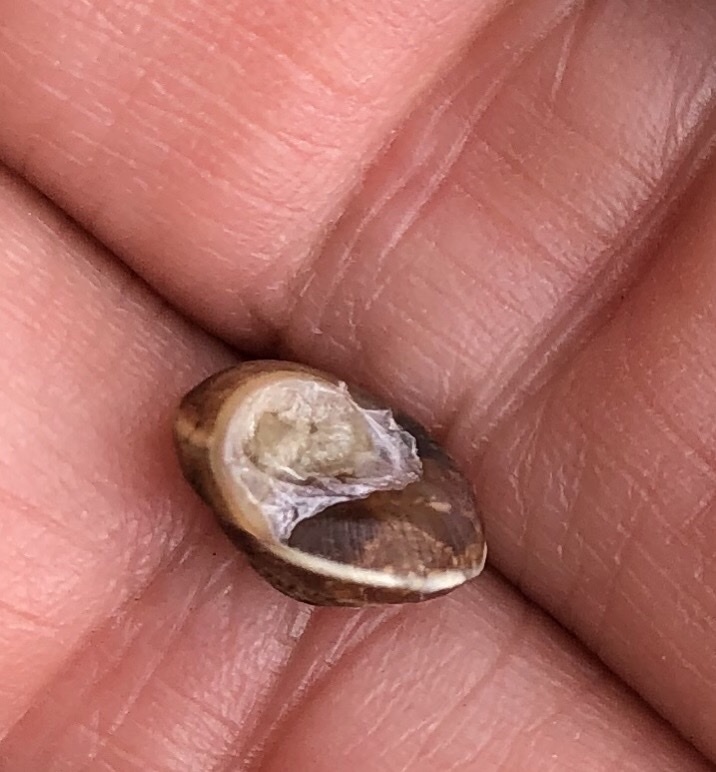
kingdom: Animalia
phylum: Mollusca
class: Gastropoda
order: Stylommatophora
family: Hygromiidae
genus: Hygromia
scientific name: Hygromia cinctella
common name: Girdled snail
